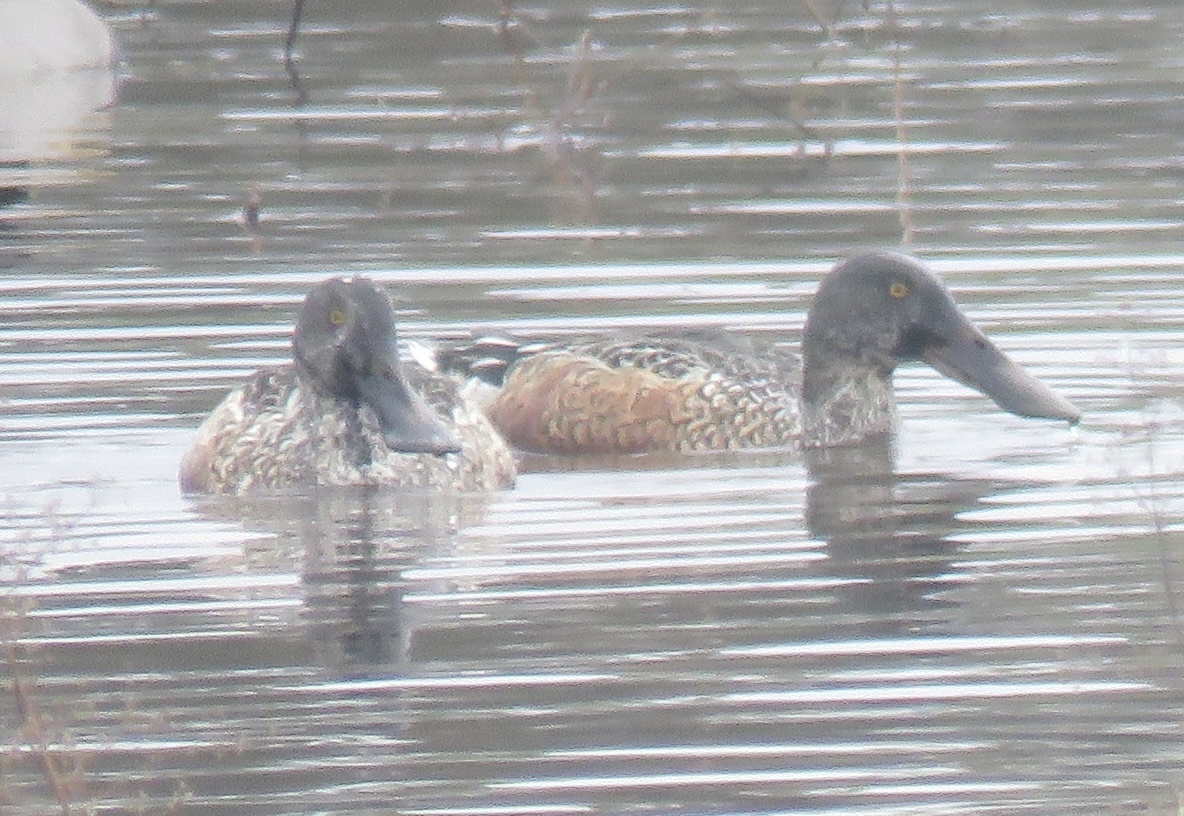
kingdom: Animalia
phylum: Chordata
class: Aves
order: Anseriformes
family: Anatidae
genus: Spatula
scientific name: Spatula clypeata
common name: Northern shoveler
